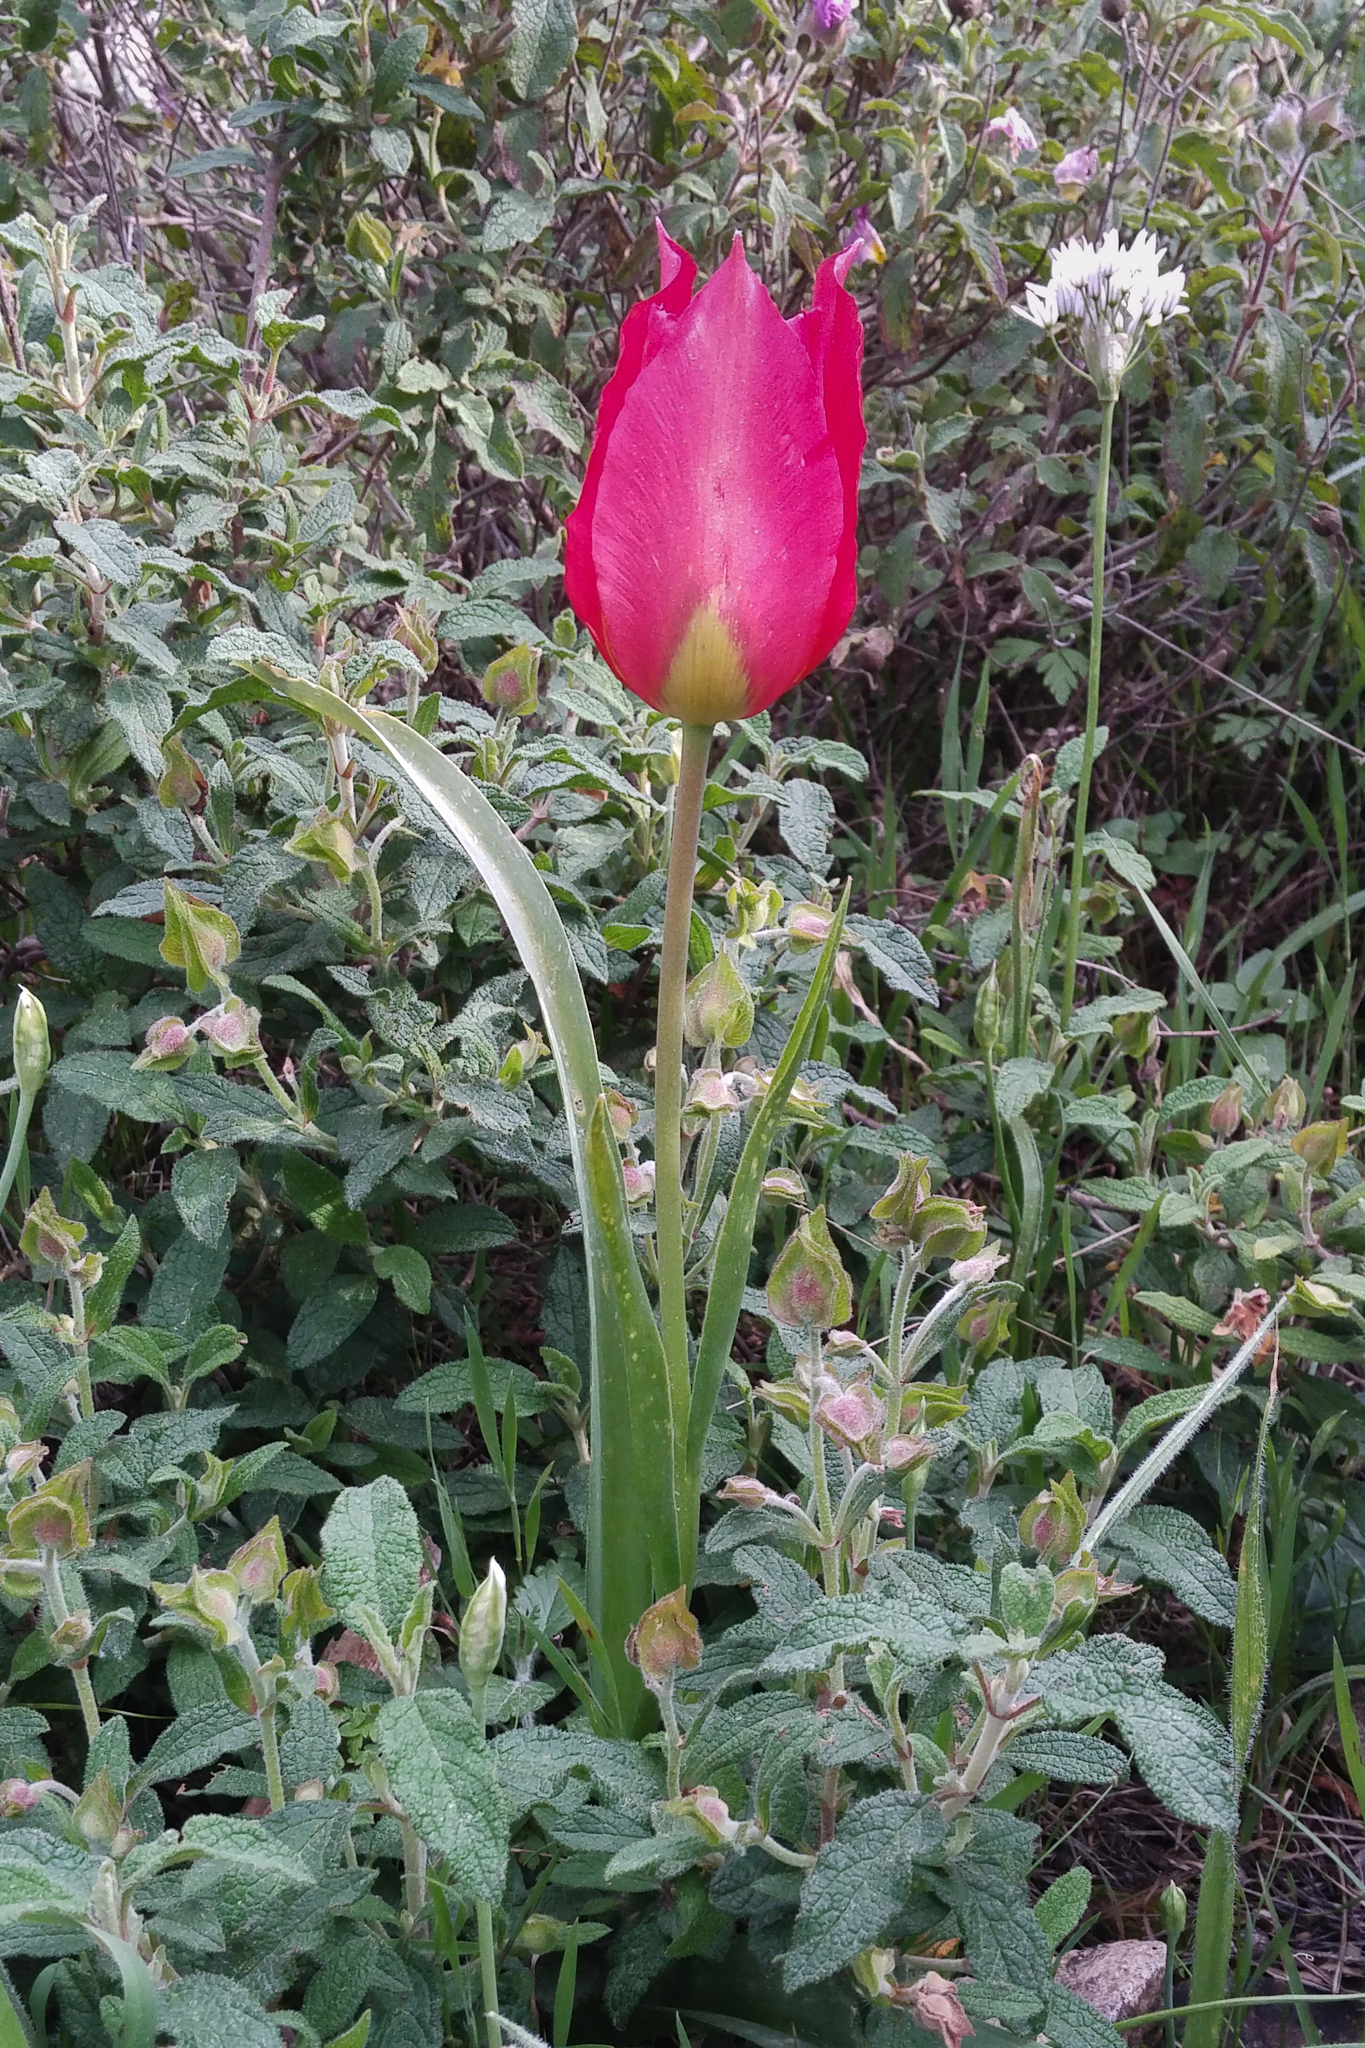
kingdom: Plantae
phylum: Tracheophyta
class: Liliopsida
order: Liliales
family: Liliaceae
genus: Tulipa
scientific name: Tulipa agenensis
